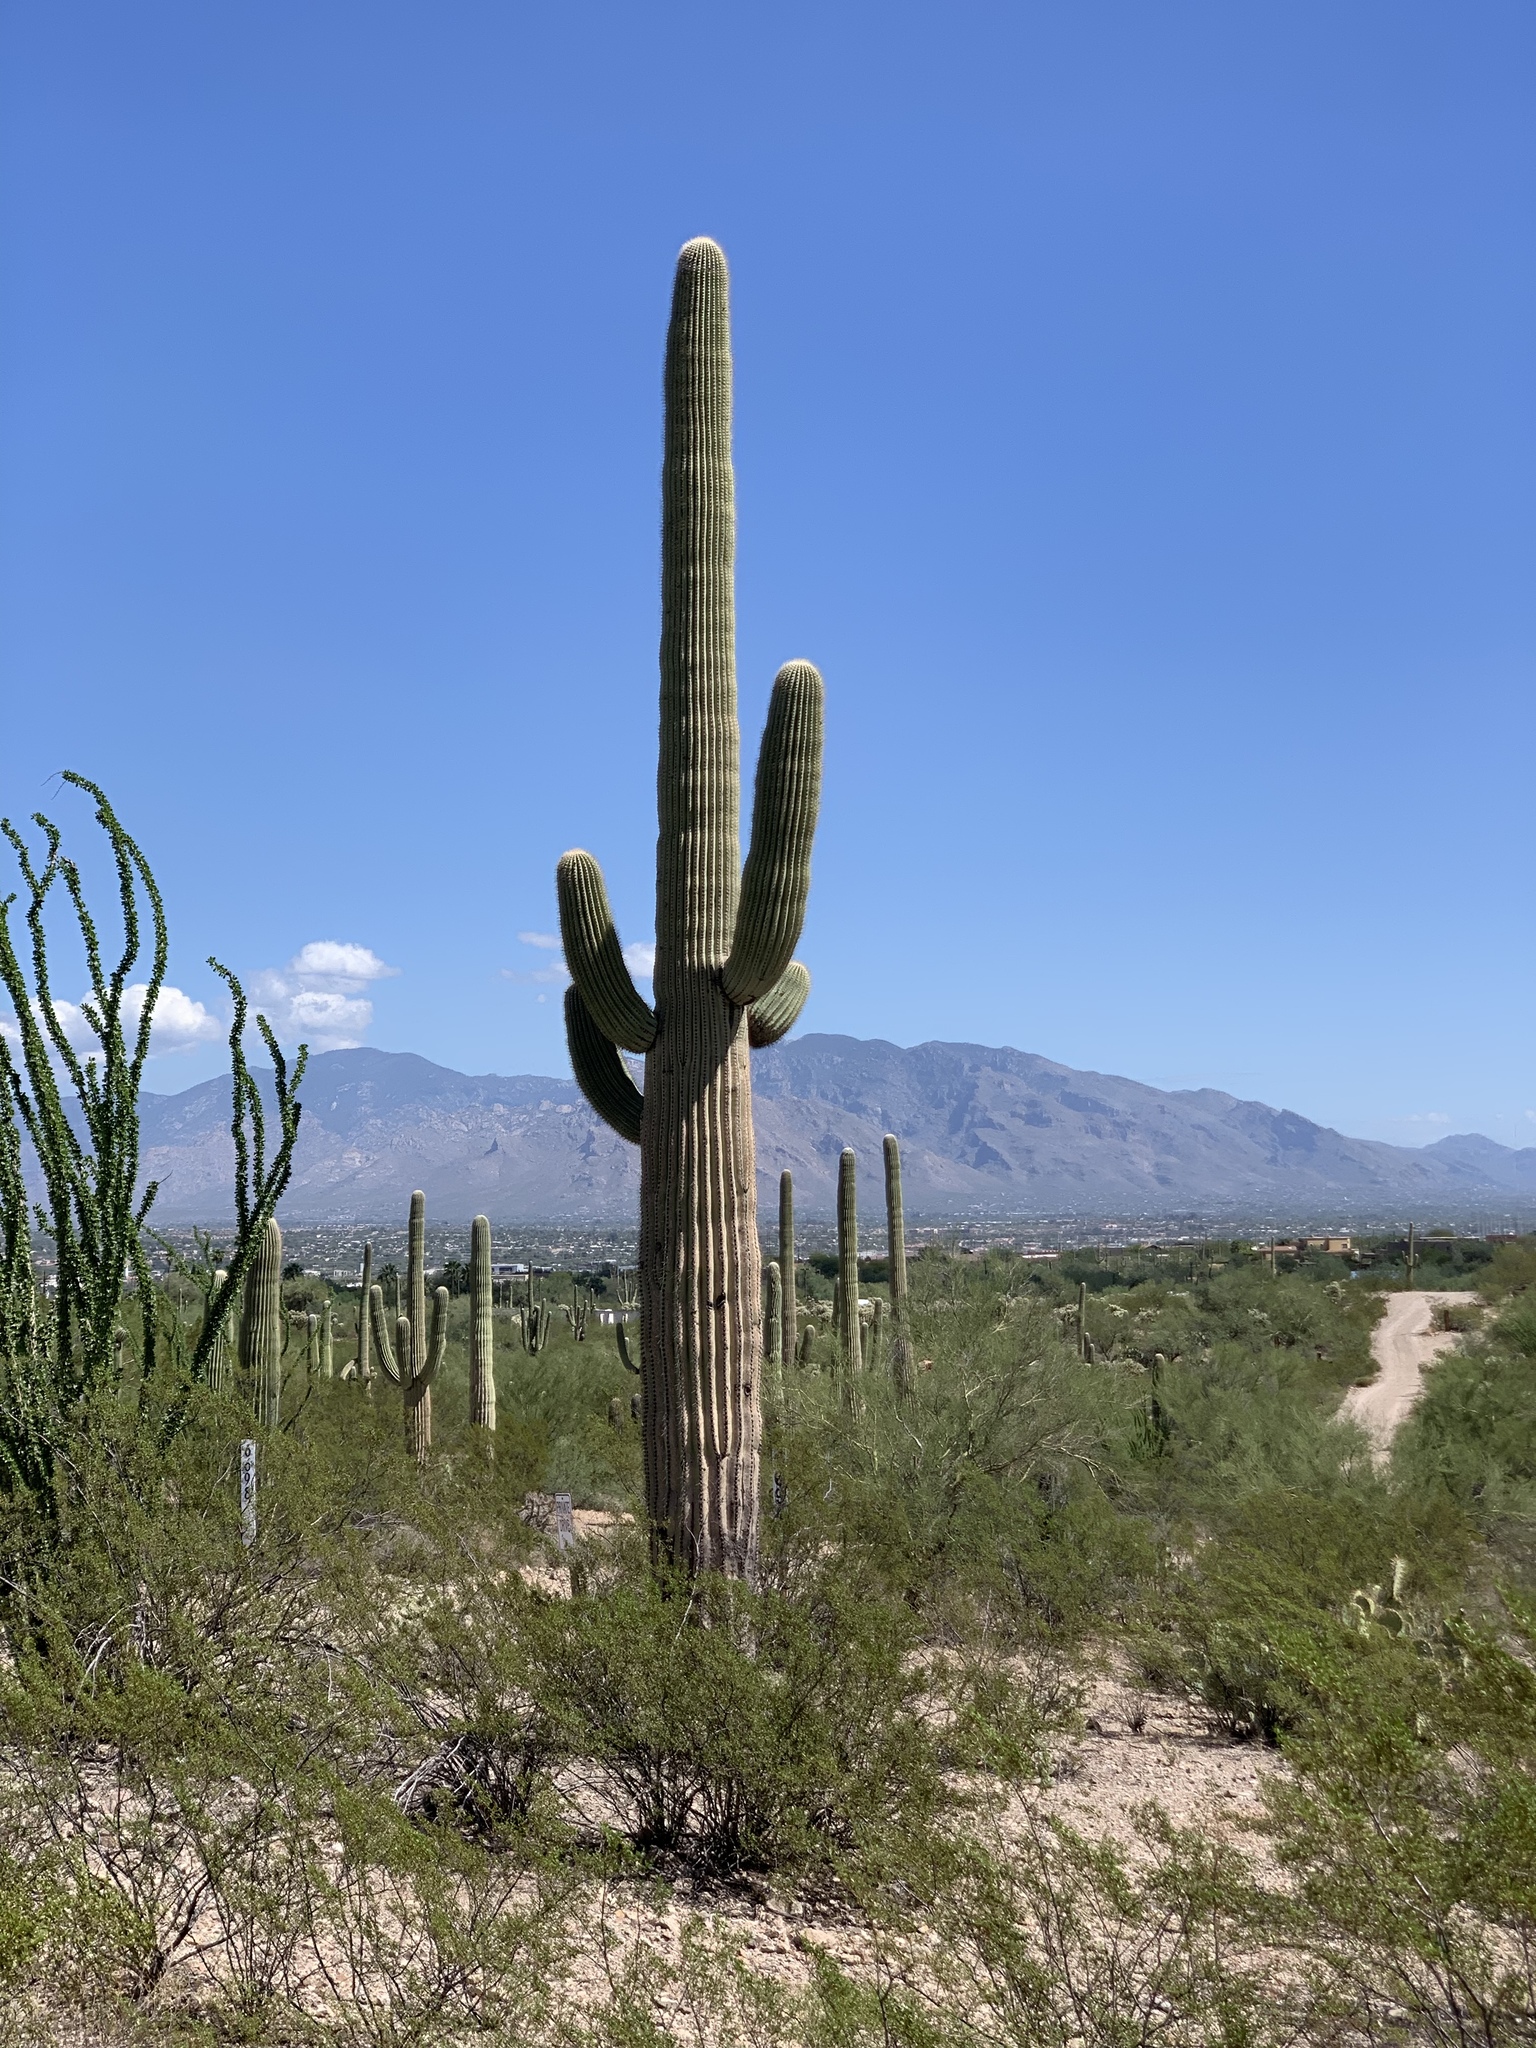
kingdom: Plantae
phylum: Tracheophyta
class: Magnoliopsida
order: Caryophyllales
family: Cactaceae
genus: Carnegiea
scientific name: Carnegiea gigantea
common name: Saguaro
